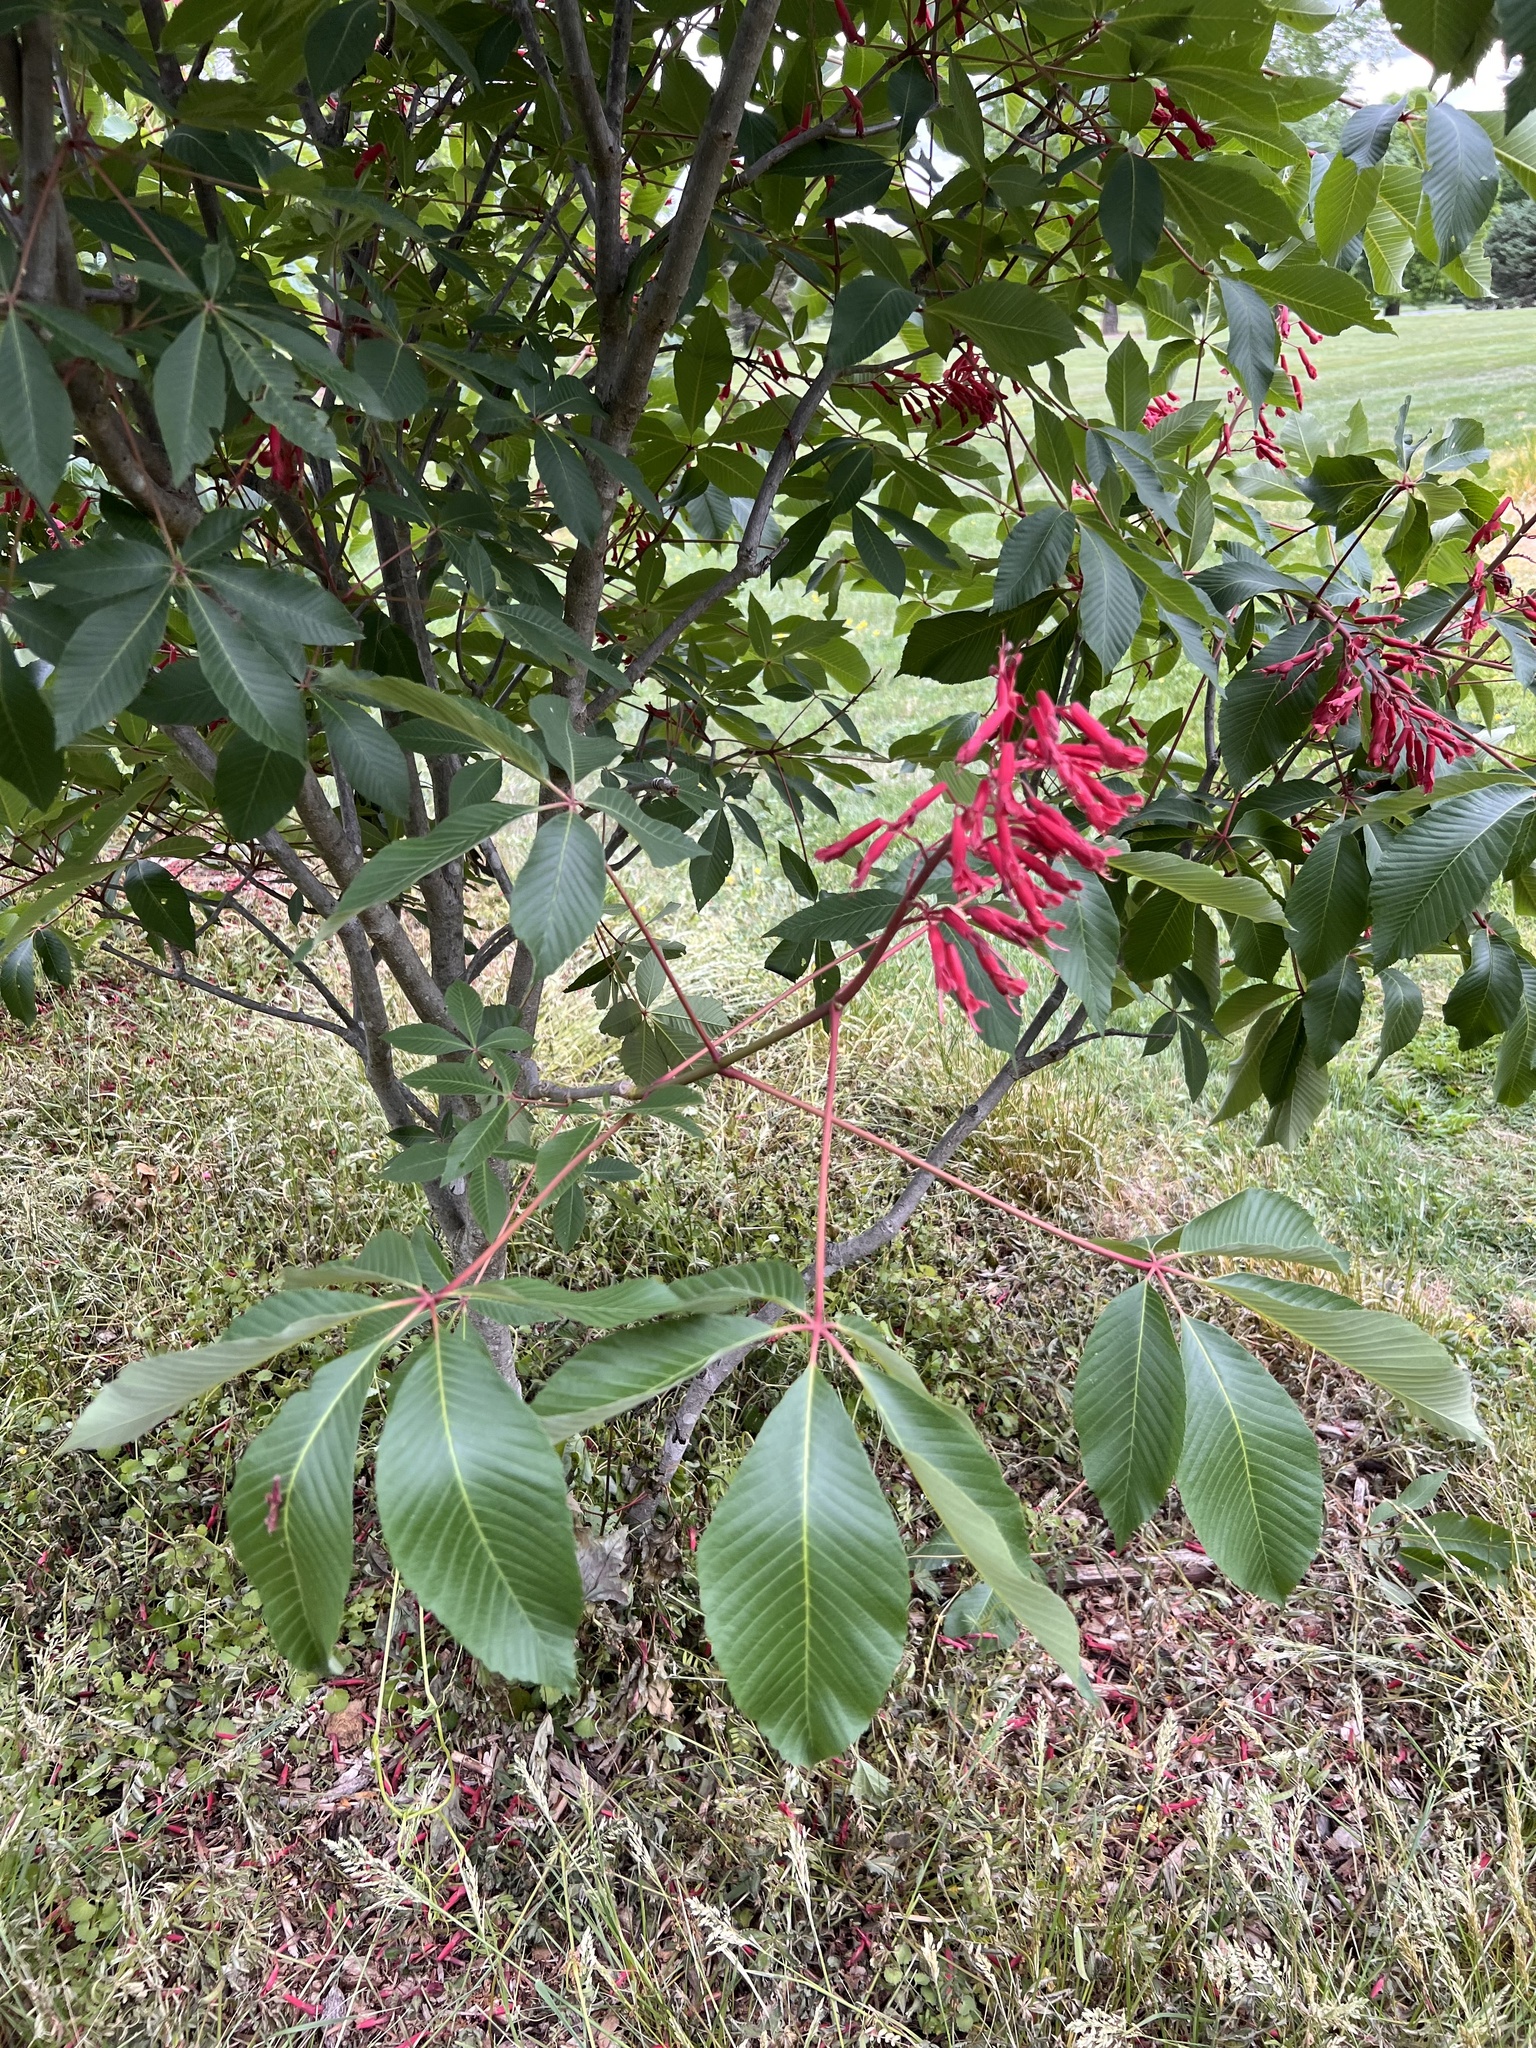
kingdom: Plantae
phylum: Tracheophyta
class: Magnoliopsida
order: Sapindales
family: Sapindaceae
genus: Aesculus
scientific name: Aesculus pavia
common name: Red buckeye
